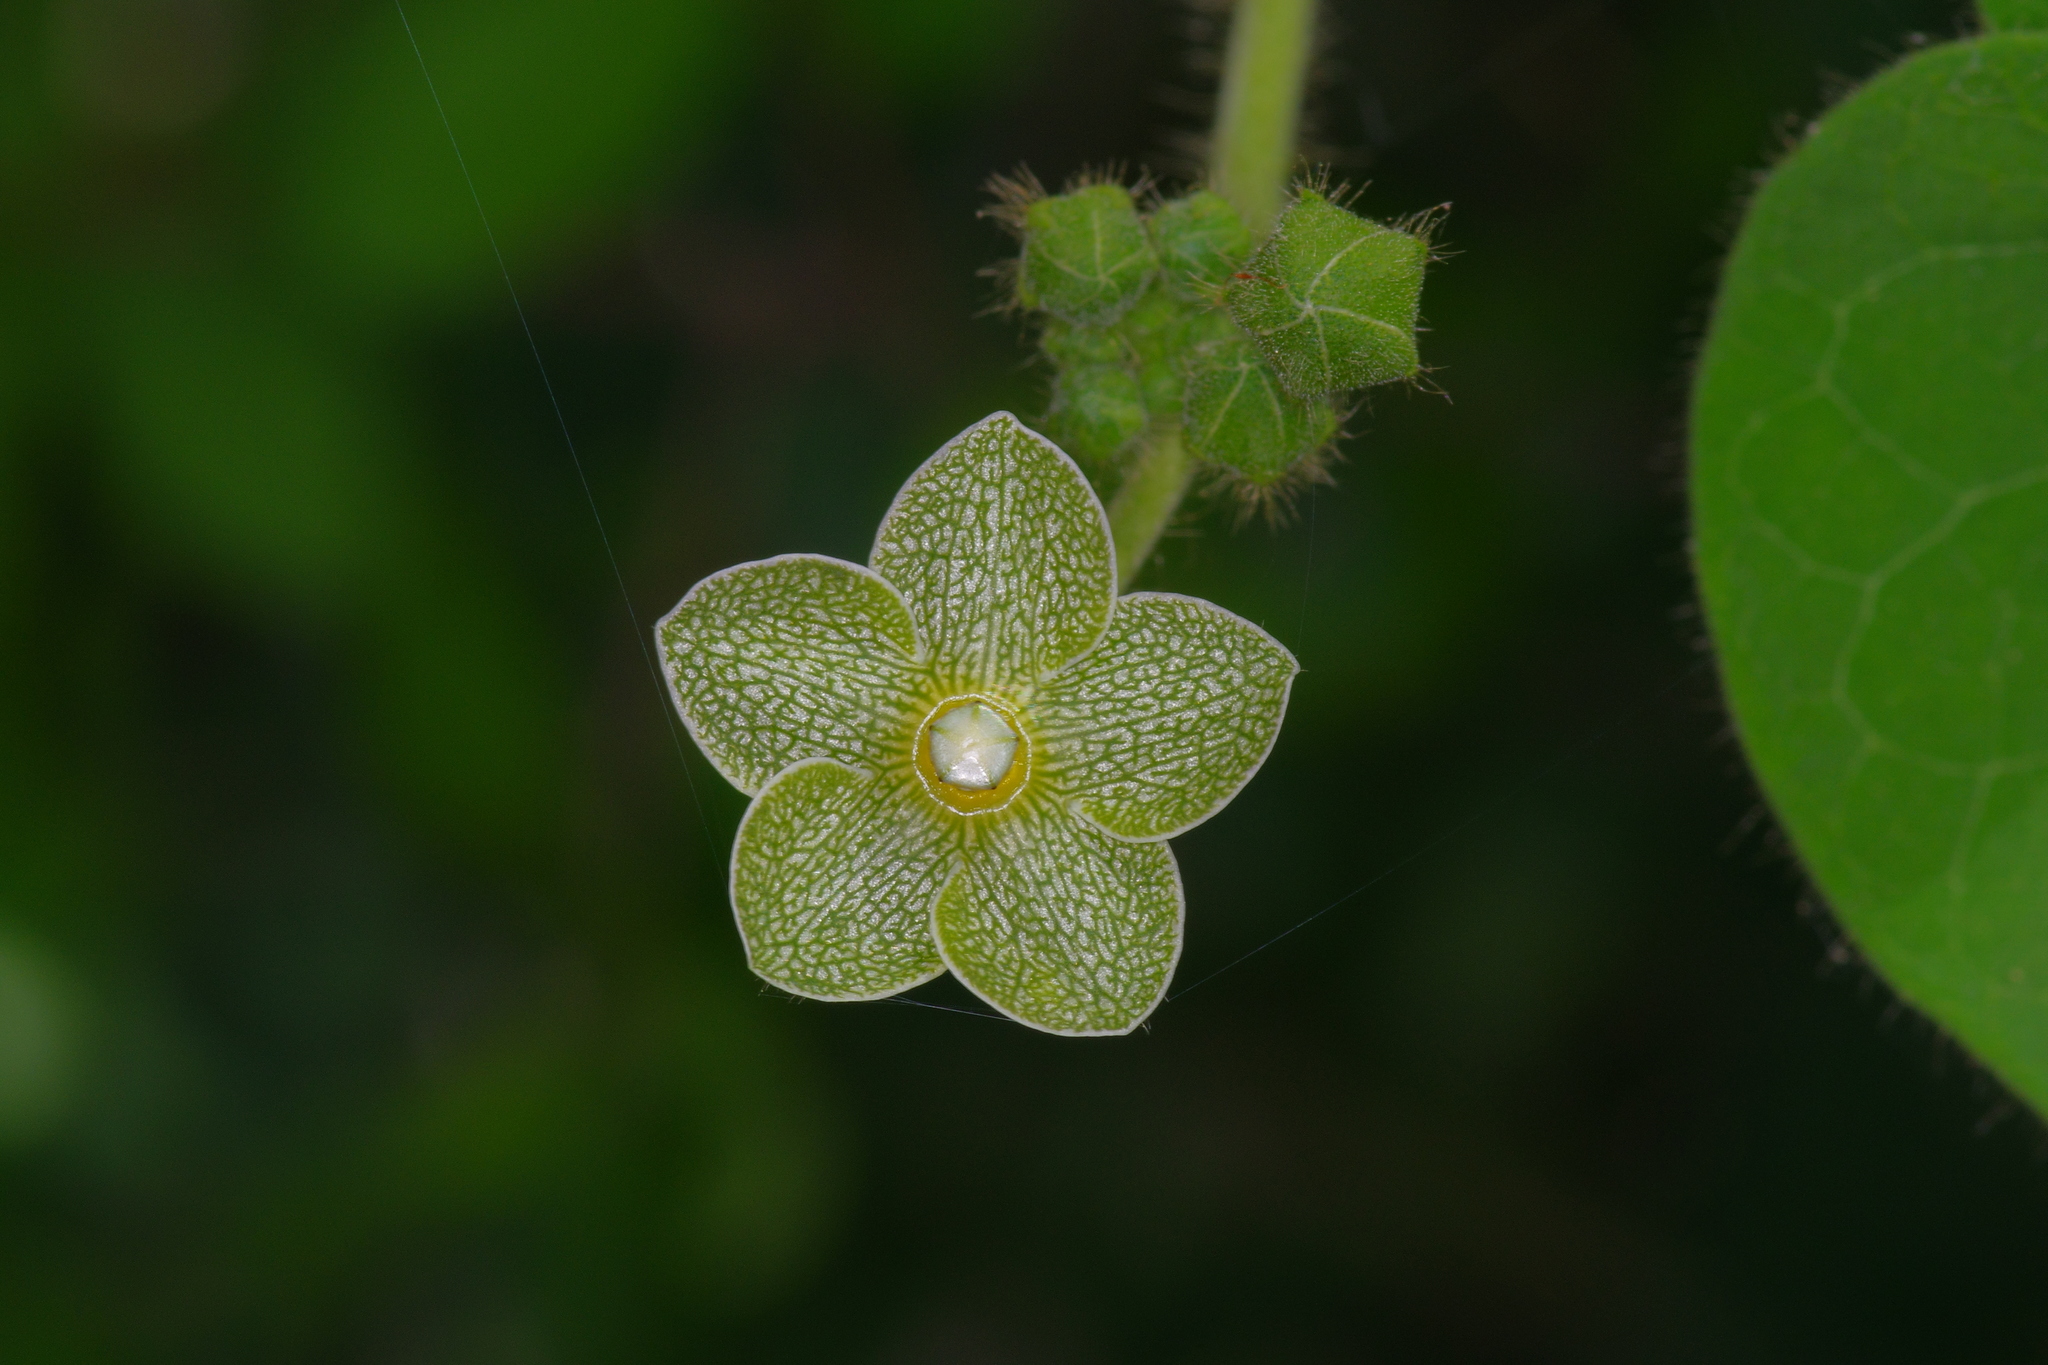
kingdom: Plantae
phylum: Tracheophyta
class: Magnoliopsida
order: Gentianales
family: Apocynaceae
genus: Dictyanthus
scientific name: Dictyanthus reticulatus
